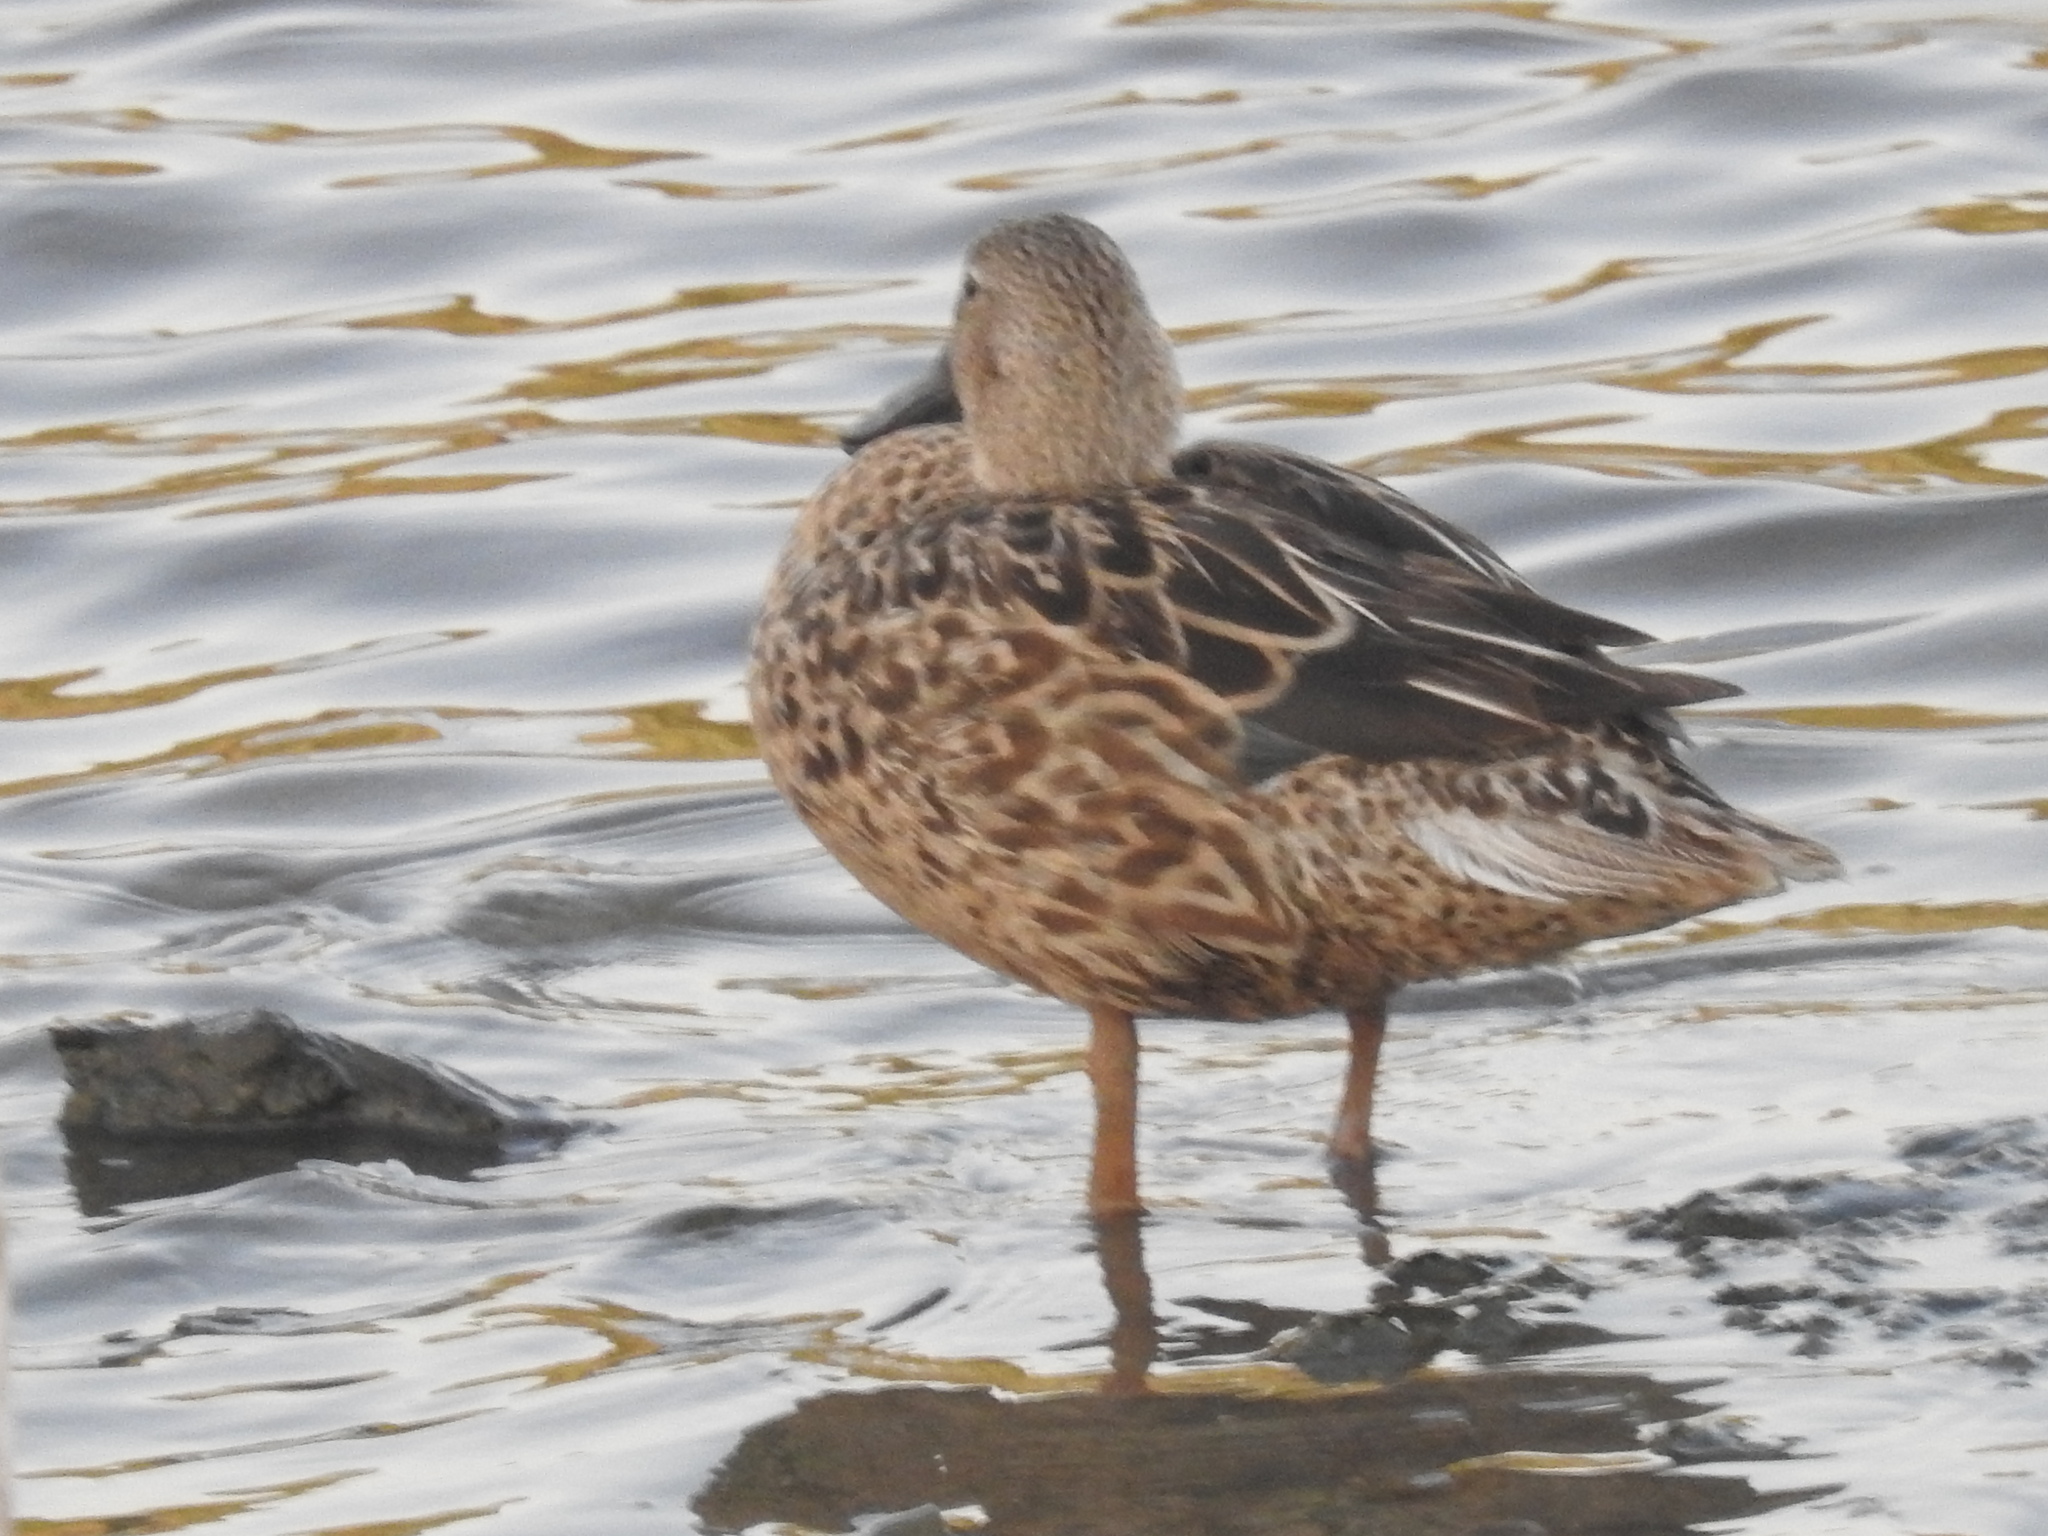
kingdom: Animalia
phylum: Chordata
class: Aves
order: Anseriformes
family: Anatidae
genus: Spatula
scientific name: Spatula platalea
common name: Red shoveler
